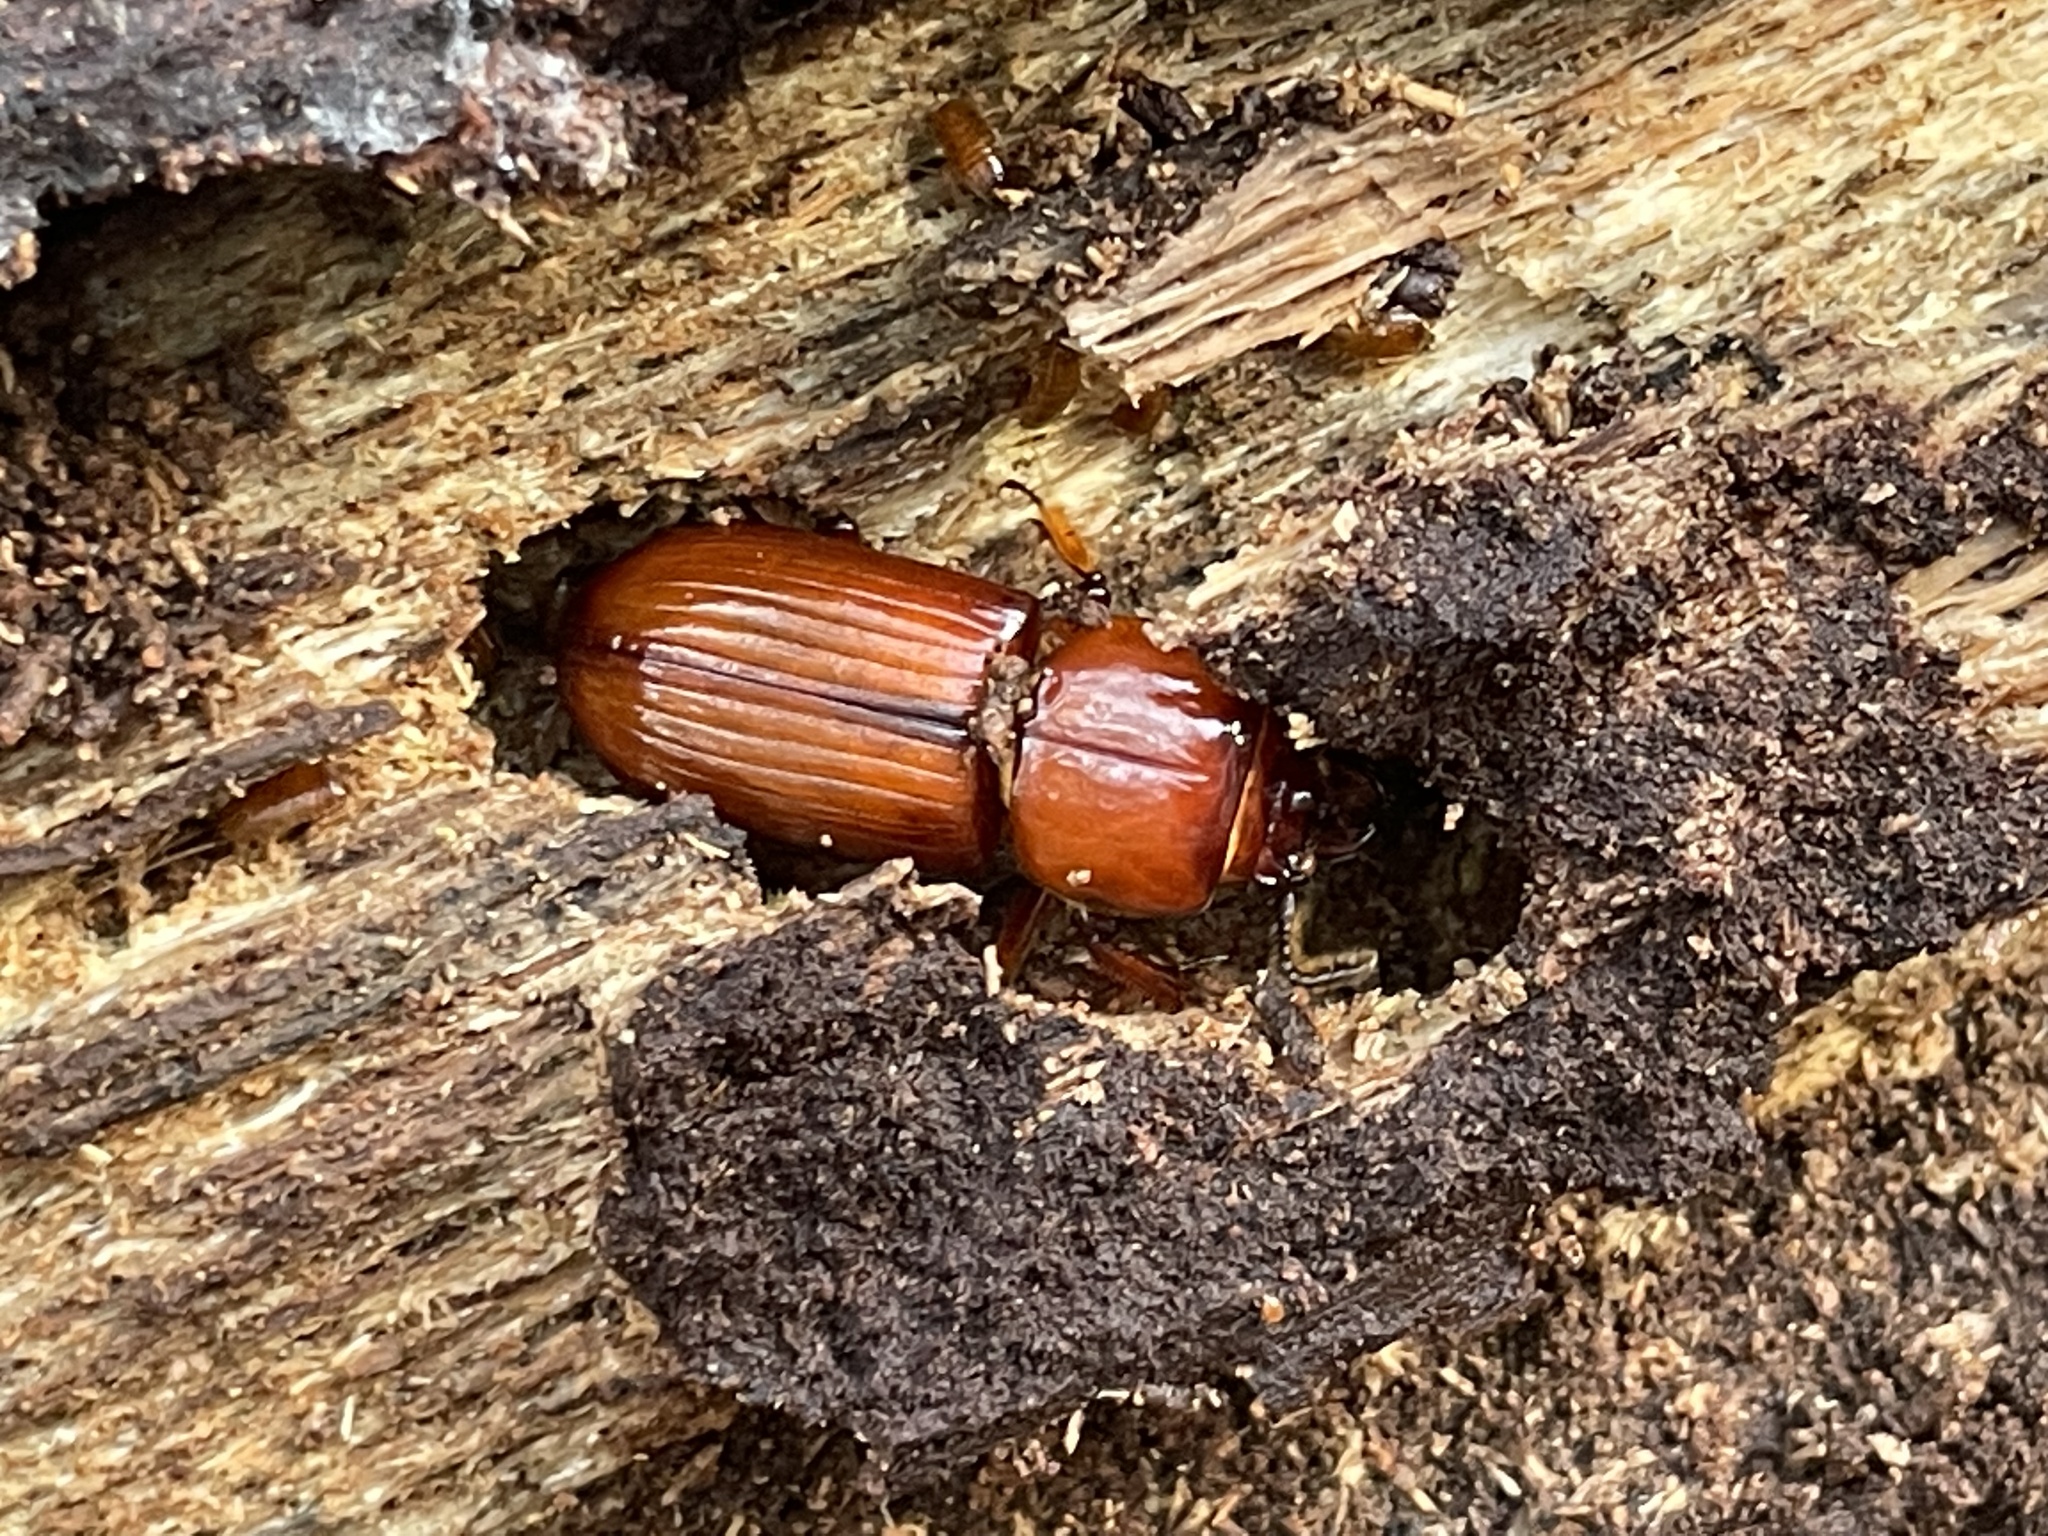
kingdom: Animalia
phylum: Arthropoda
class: Insecta
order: Coleoptera
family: Passalidae
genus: Odontotaenius
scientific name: Odontotaenius disjunctus
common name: Patent leather beetle
